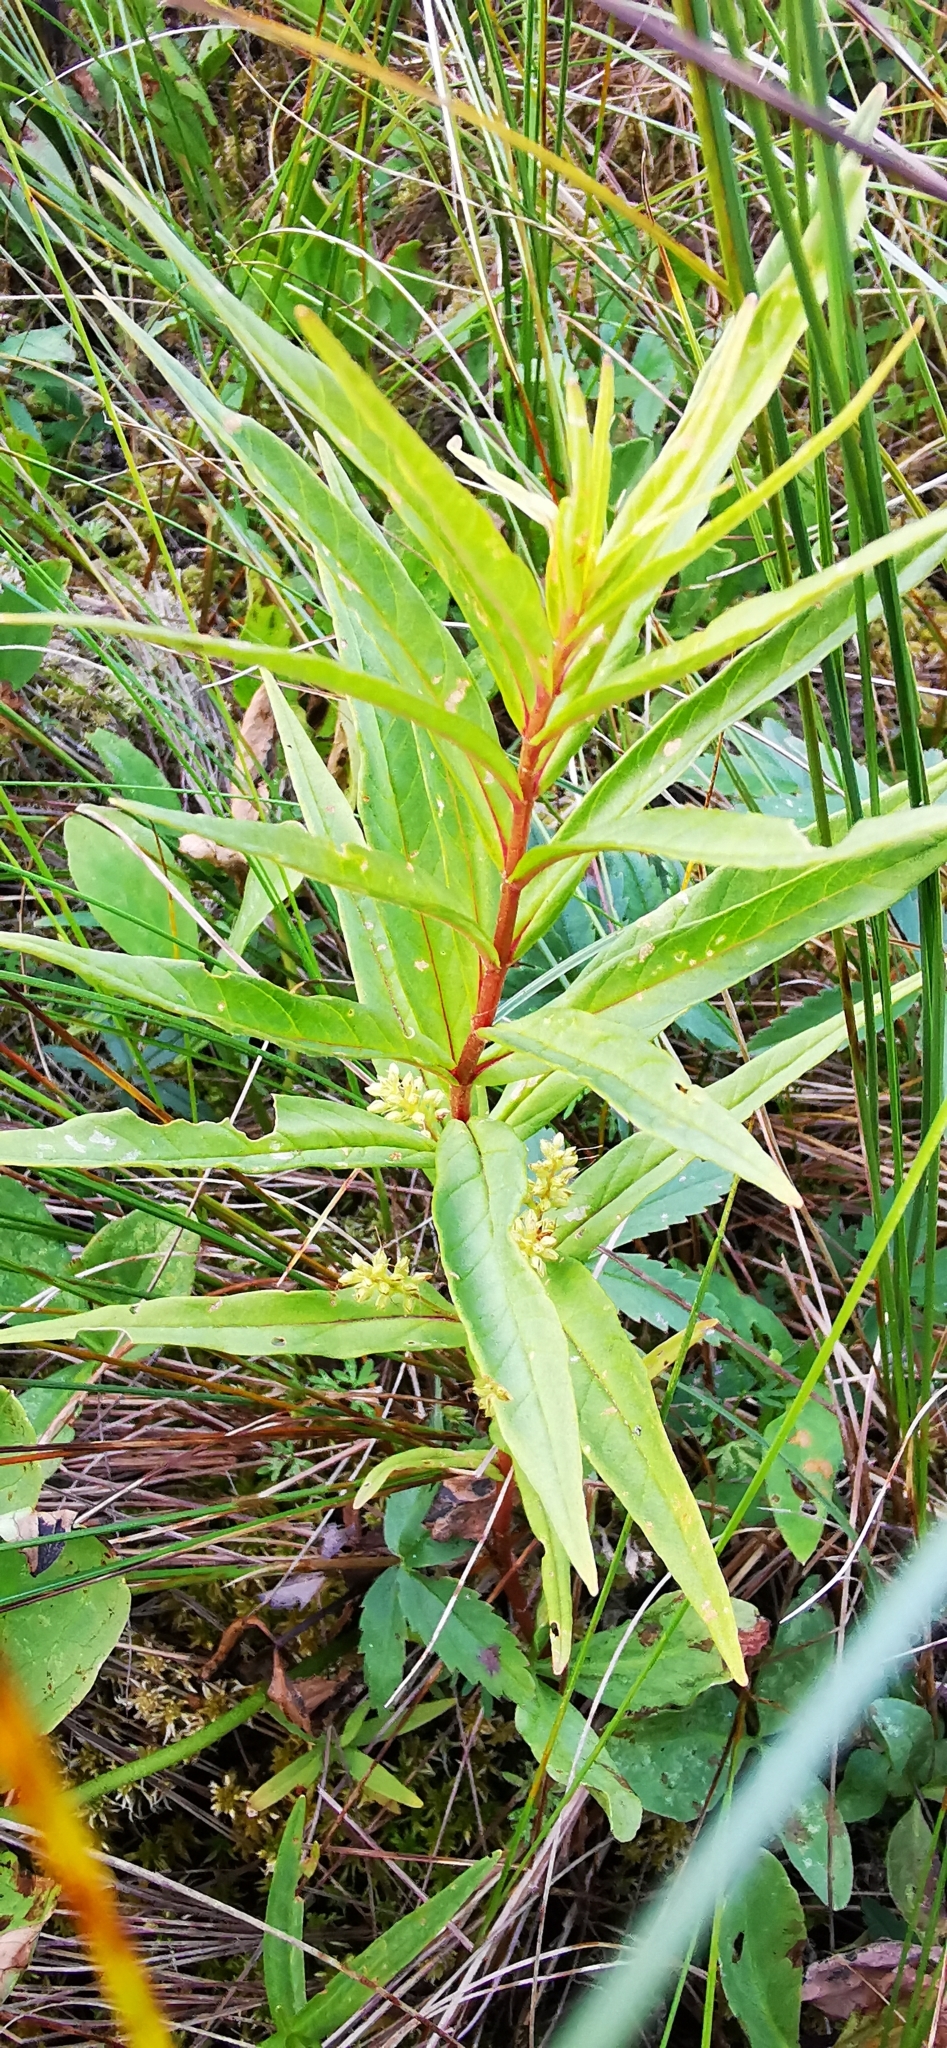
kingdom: Plantae
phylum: Tracheophyta
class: Magnoliopsida
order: Ericales
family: Primulaceae
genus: Lysimachia
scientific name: Lysimachia thyrsiflora
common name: Tufted loosestrife
